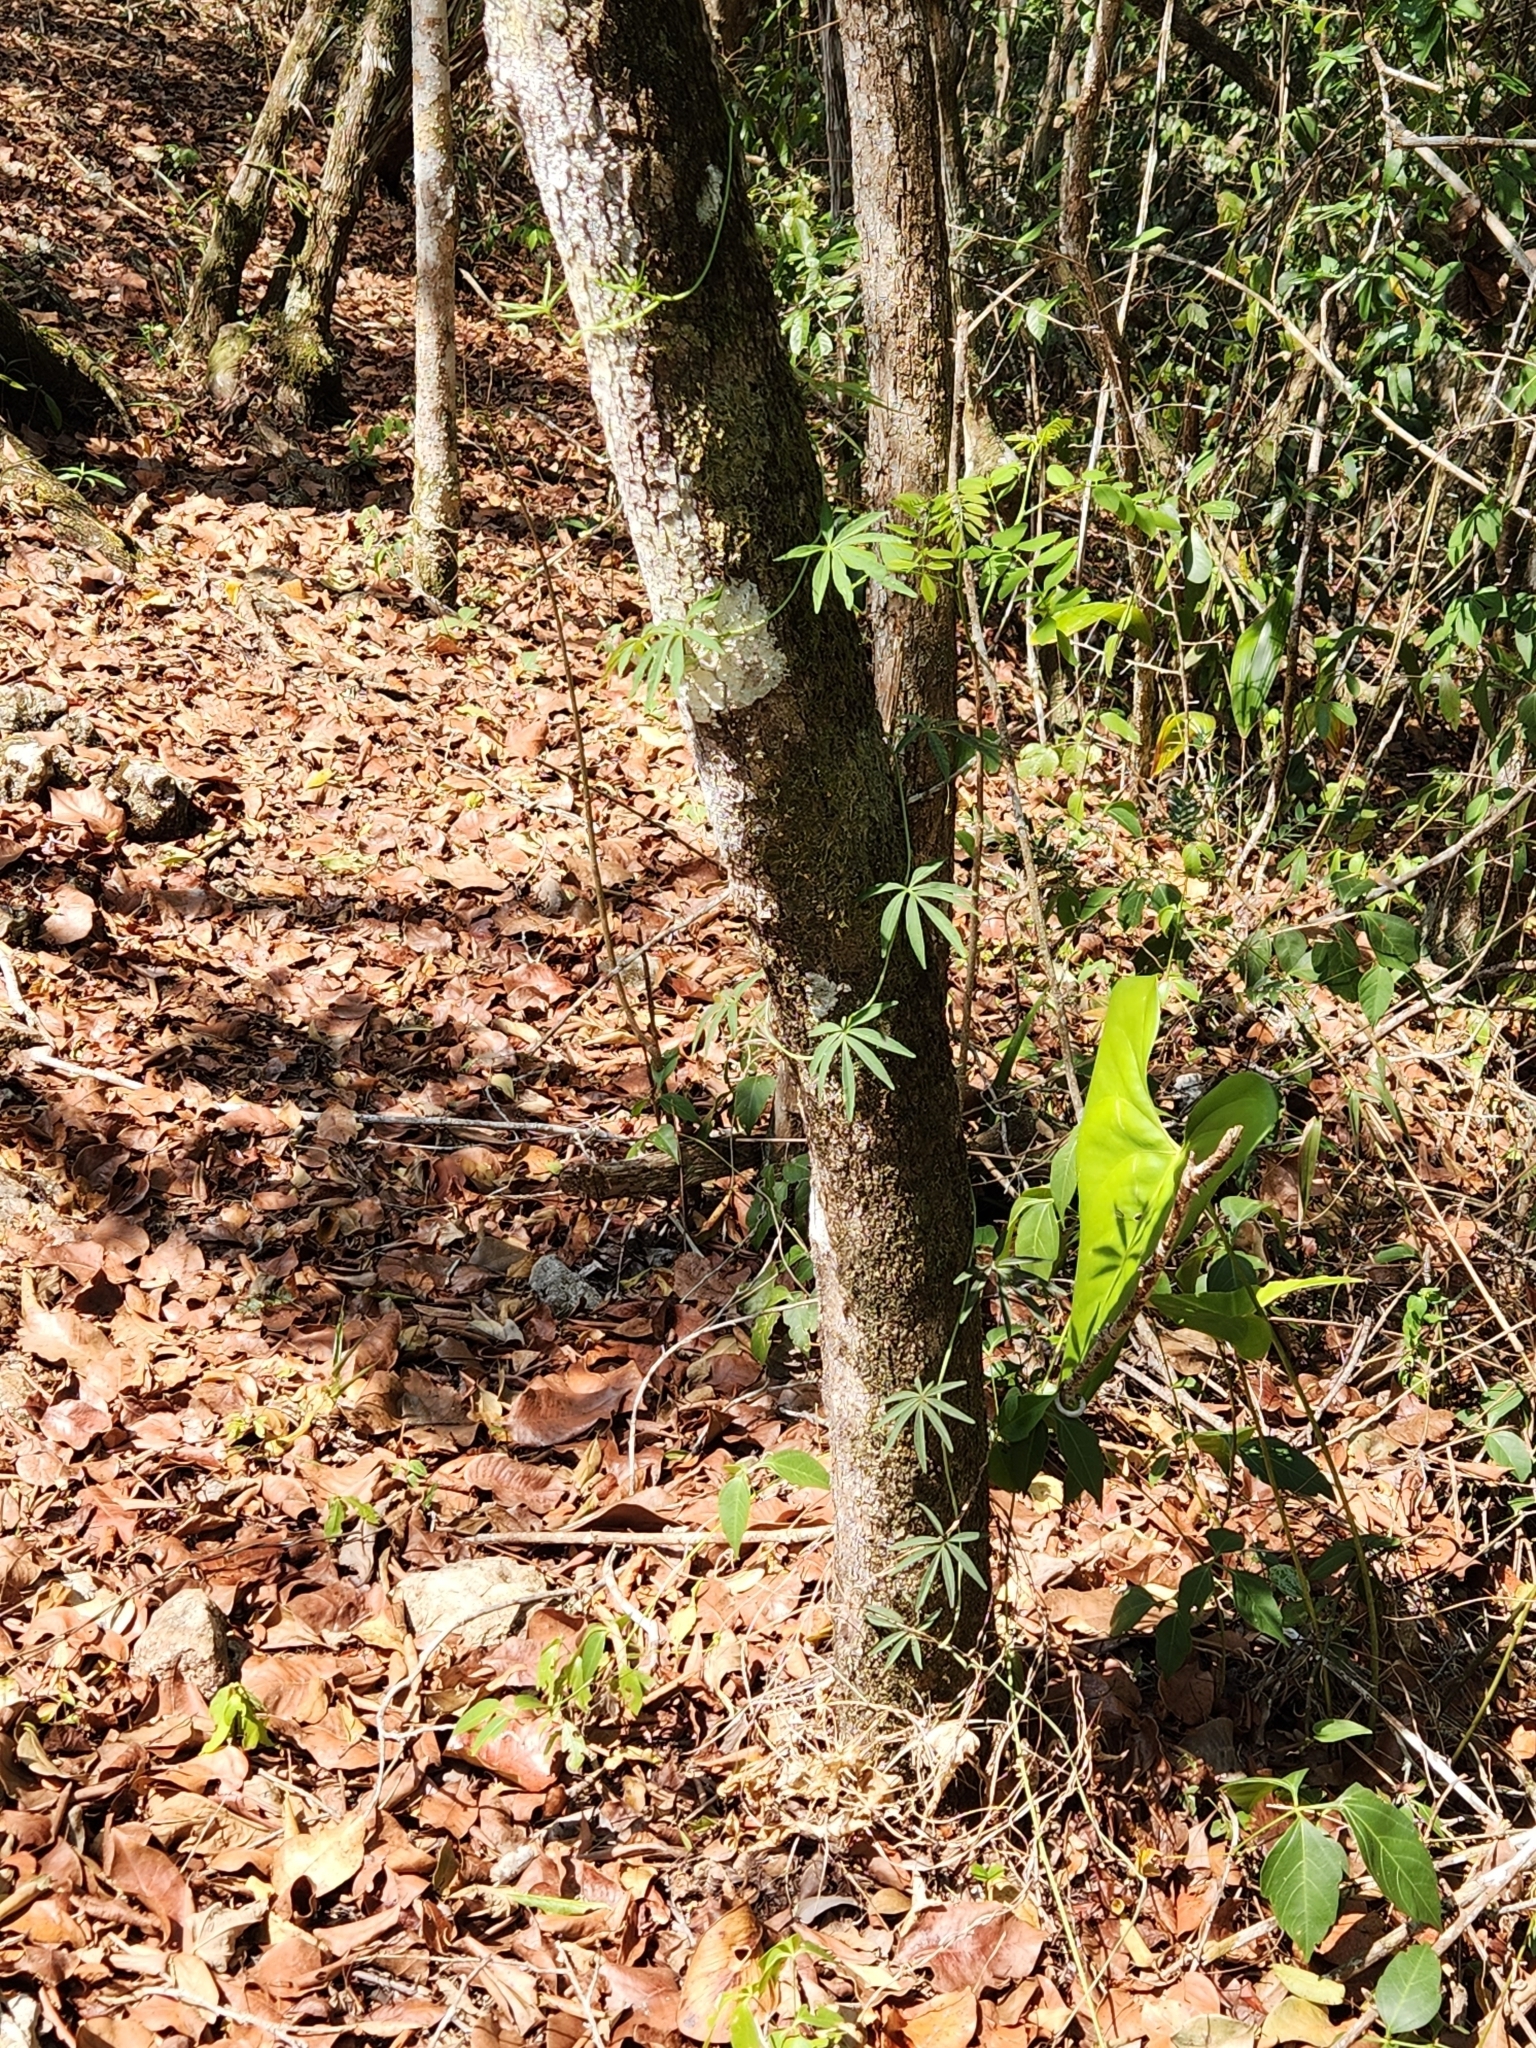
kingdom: Plantae
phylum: Tracheophyta
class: Magnoliopsida
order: Solanales
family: Convolvulaceae
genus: Ipomoea
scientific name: Ipomoea heterodoxa
